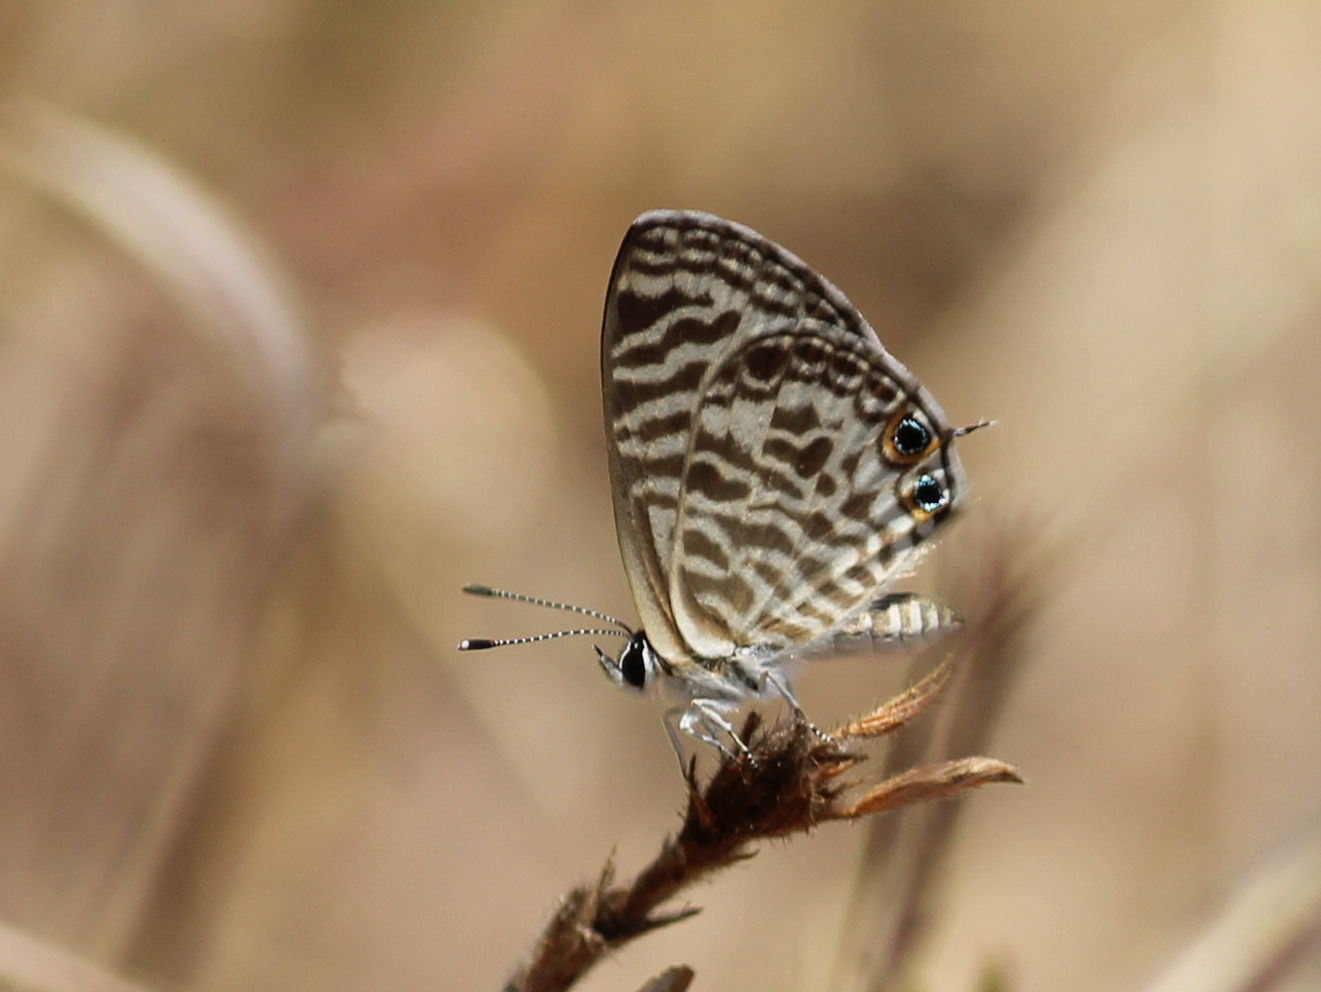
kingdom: Animalia
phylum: Arthropoda
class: Insecta
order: Lepidoptera
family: Lycaenidae
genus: Leptotes
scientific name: Leptotes plinius
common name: Zebra blue
